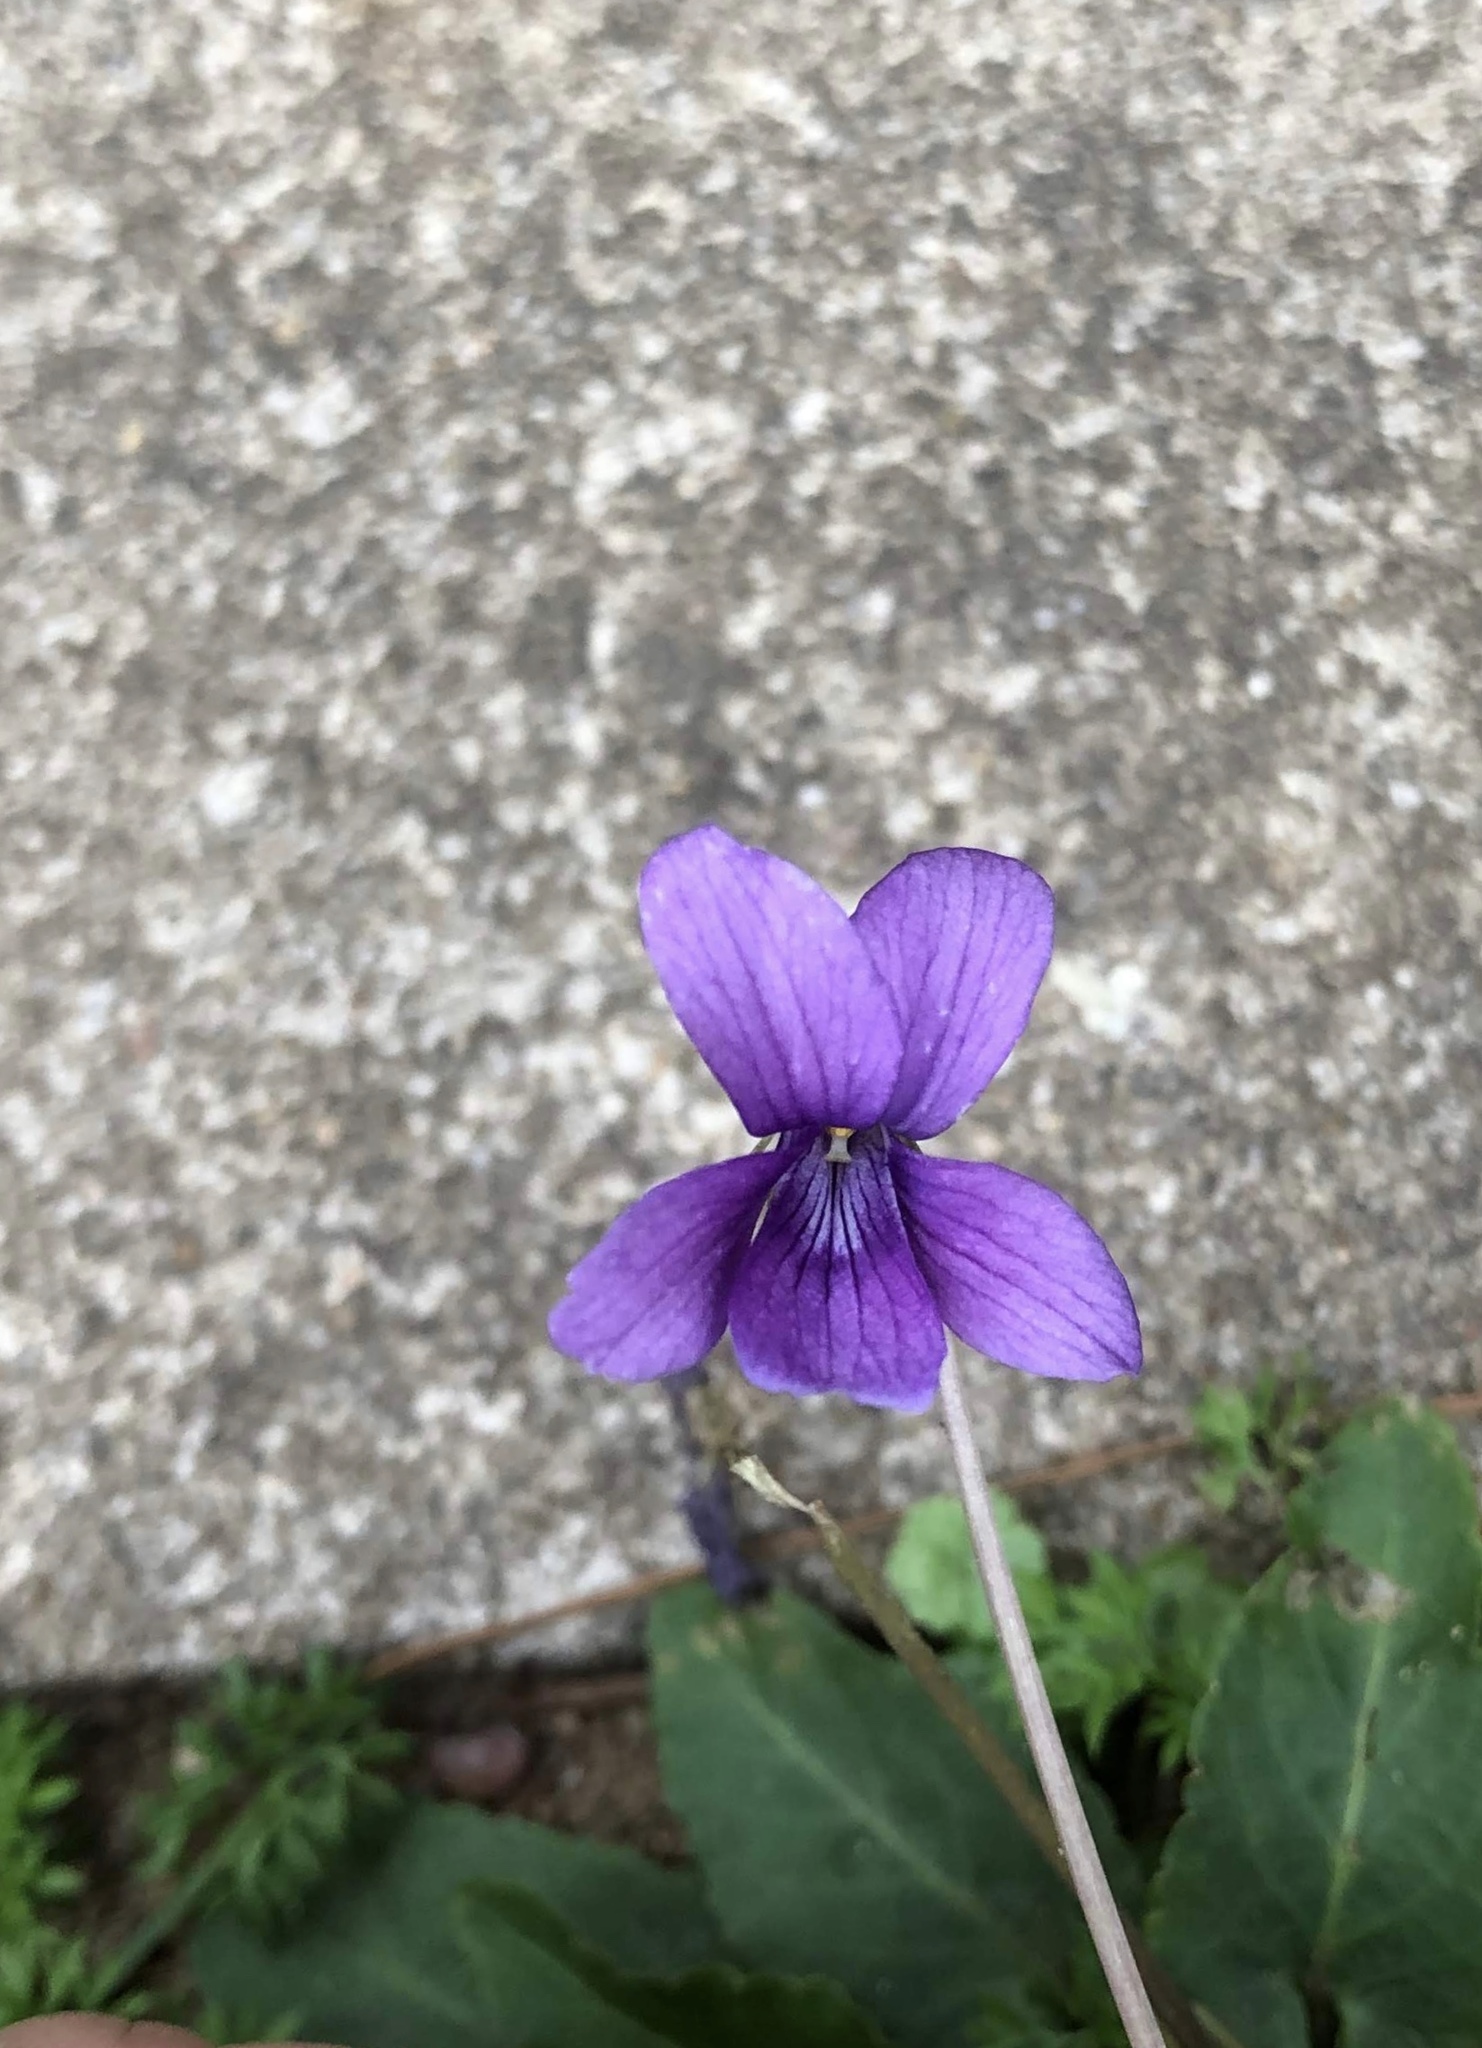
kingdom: Plantae
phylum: Tracheophyta
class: Magnoliopsida
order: Malpighiales
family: Violaceae
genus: Viola
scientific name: Viola inconspicua
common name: Long sepal violet
